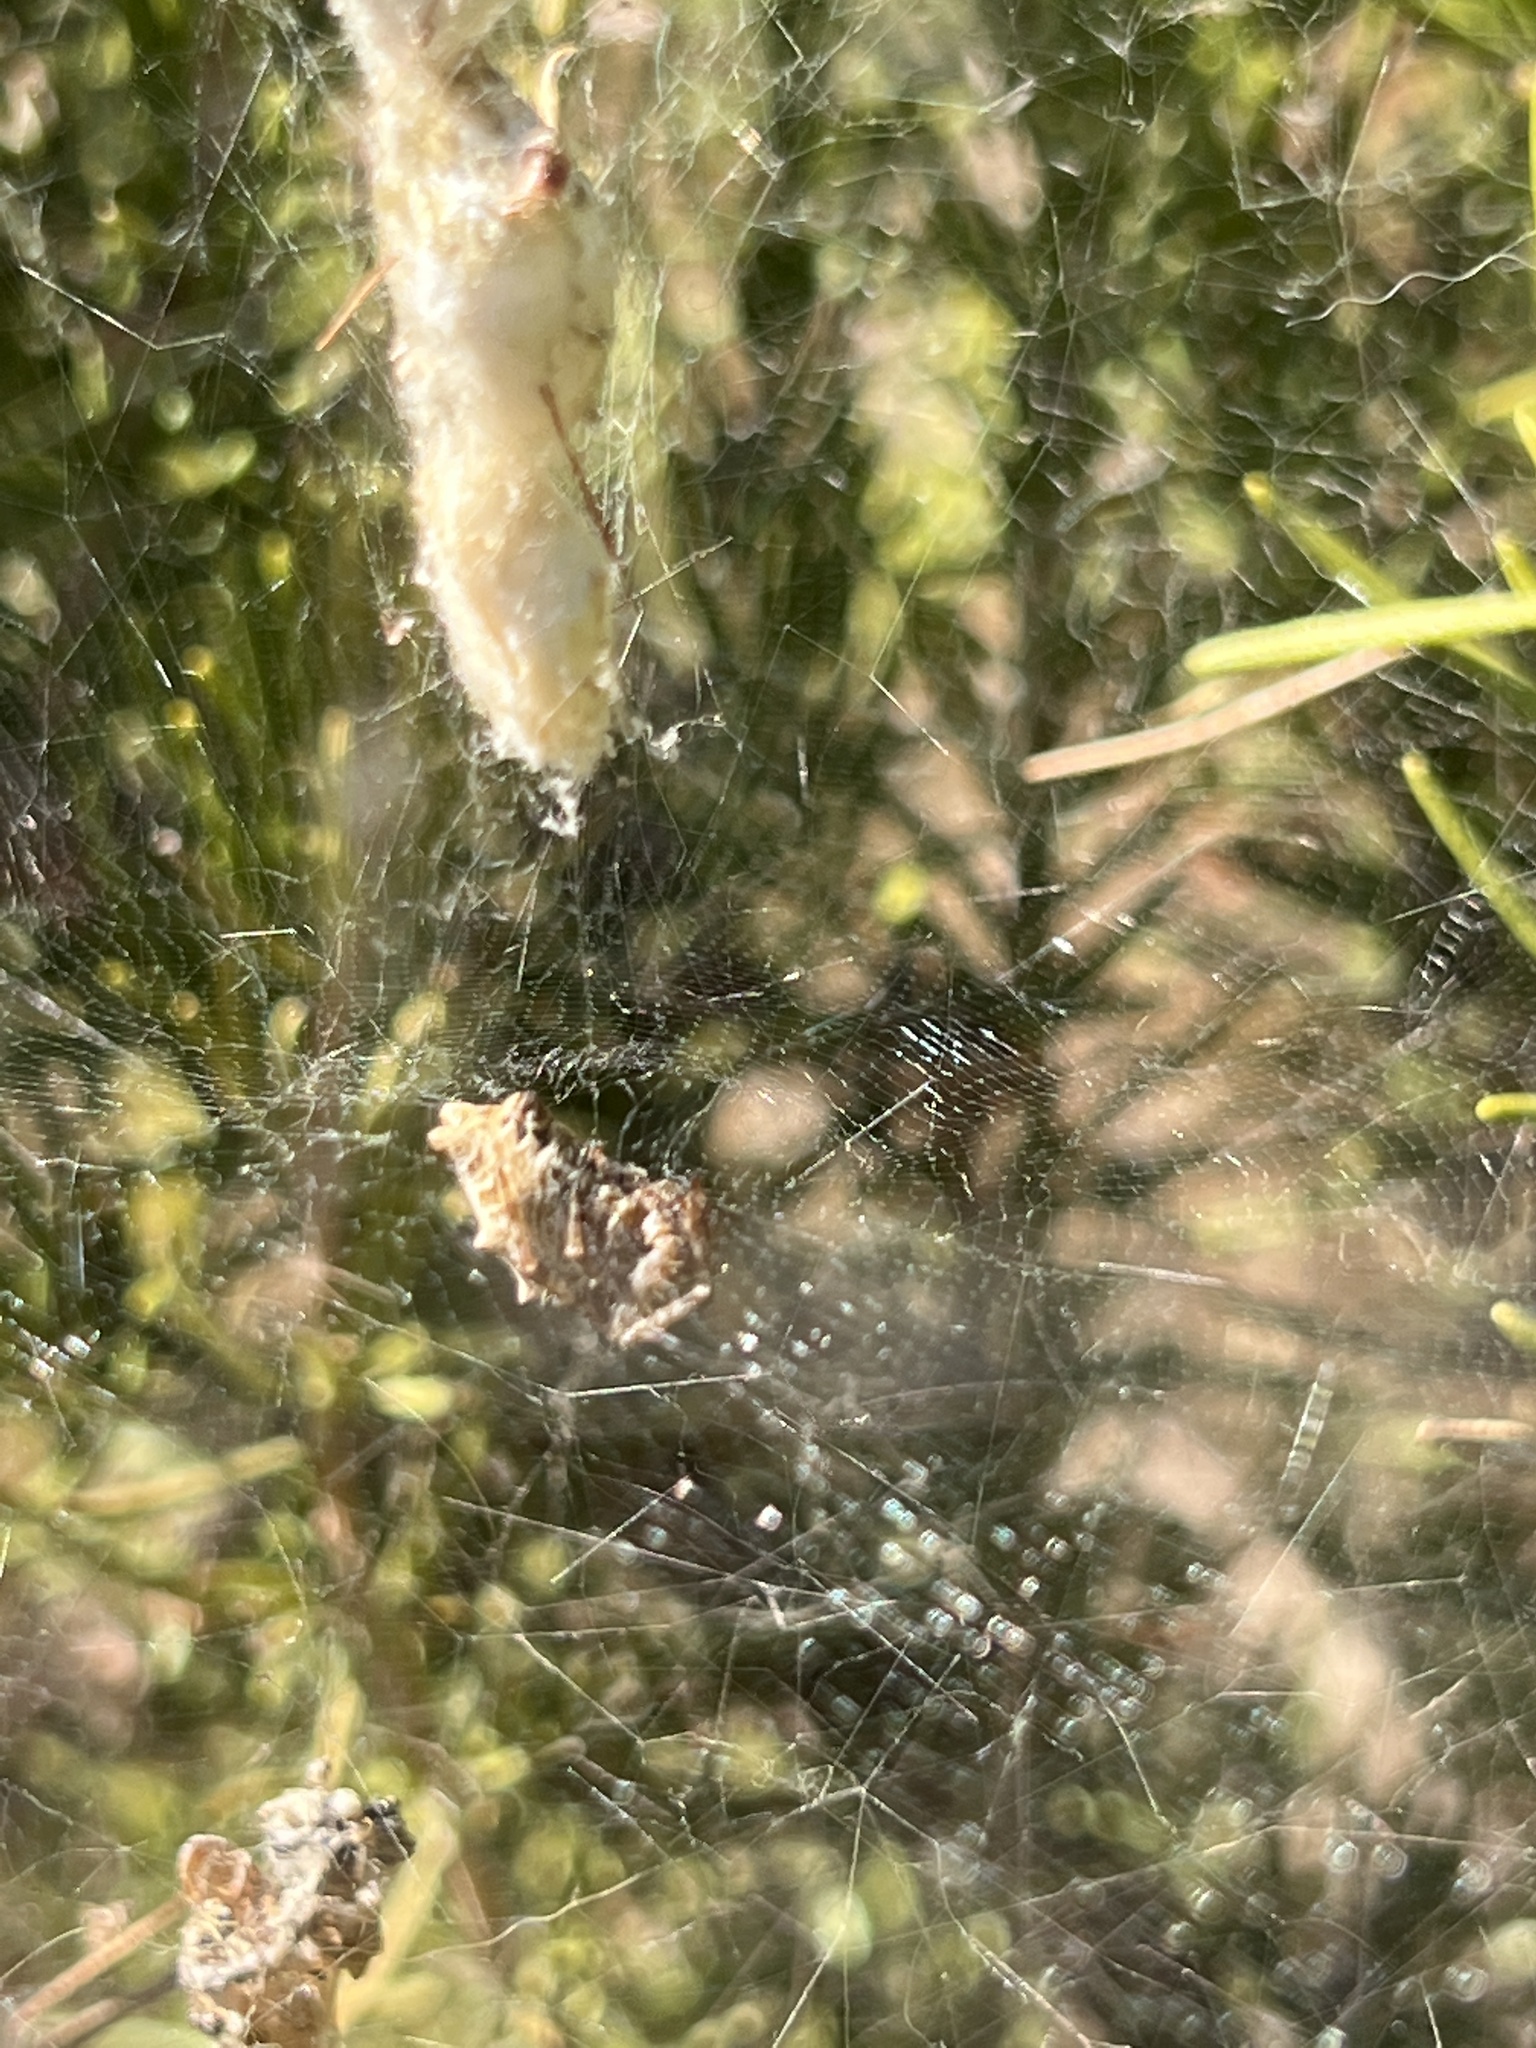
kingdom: Animalia
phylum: Arthropoda
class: Arachnida
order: Araneae
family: Araneidae
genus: Cyrtophora
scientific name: Cyrtophora citricola
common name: Orb weavers
